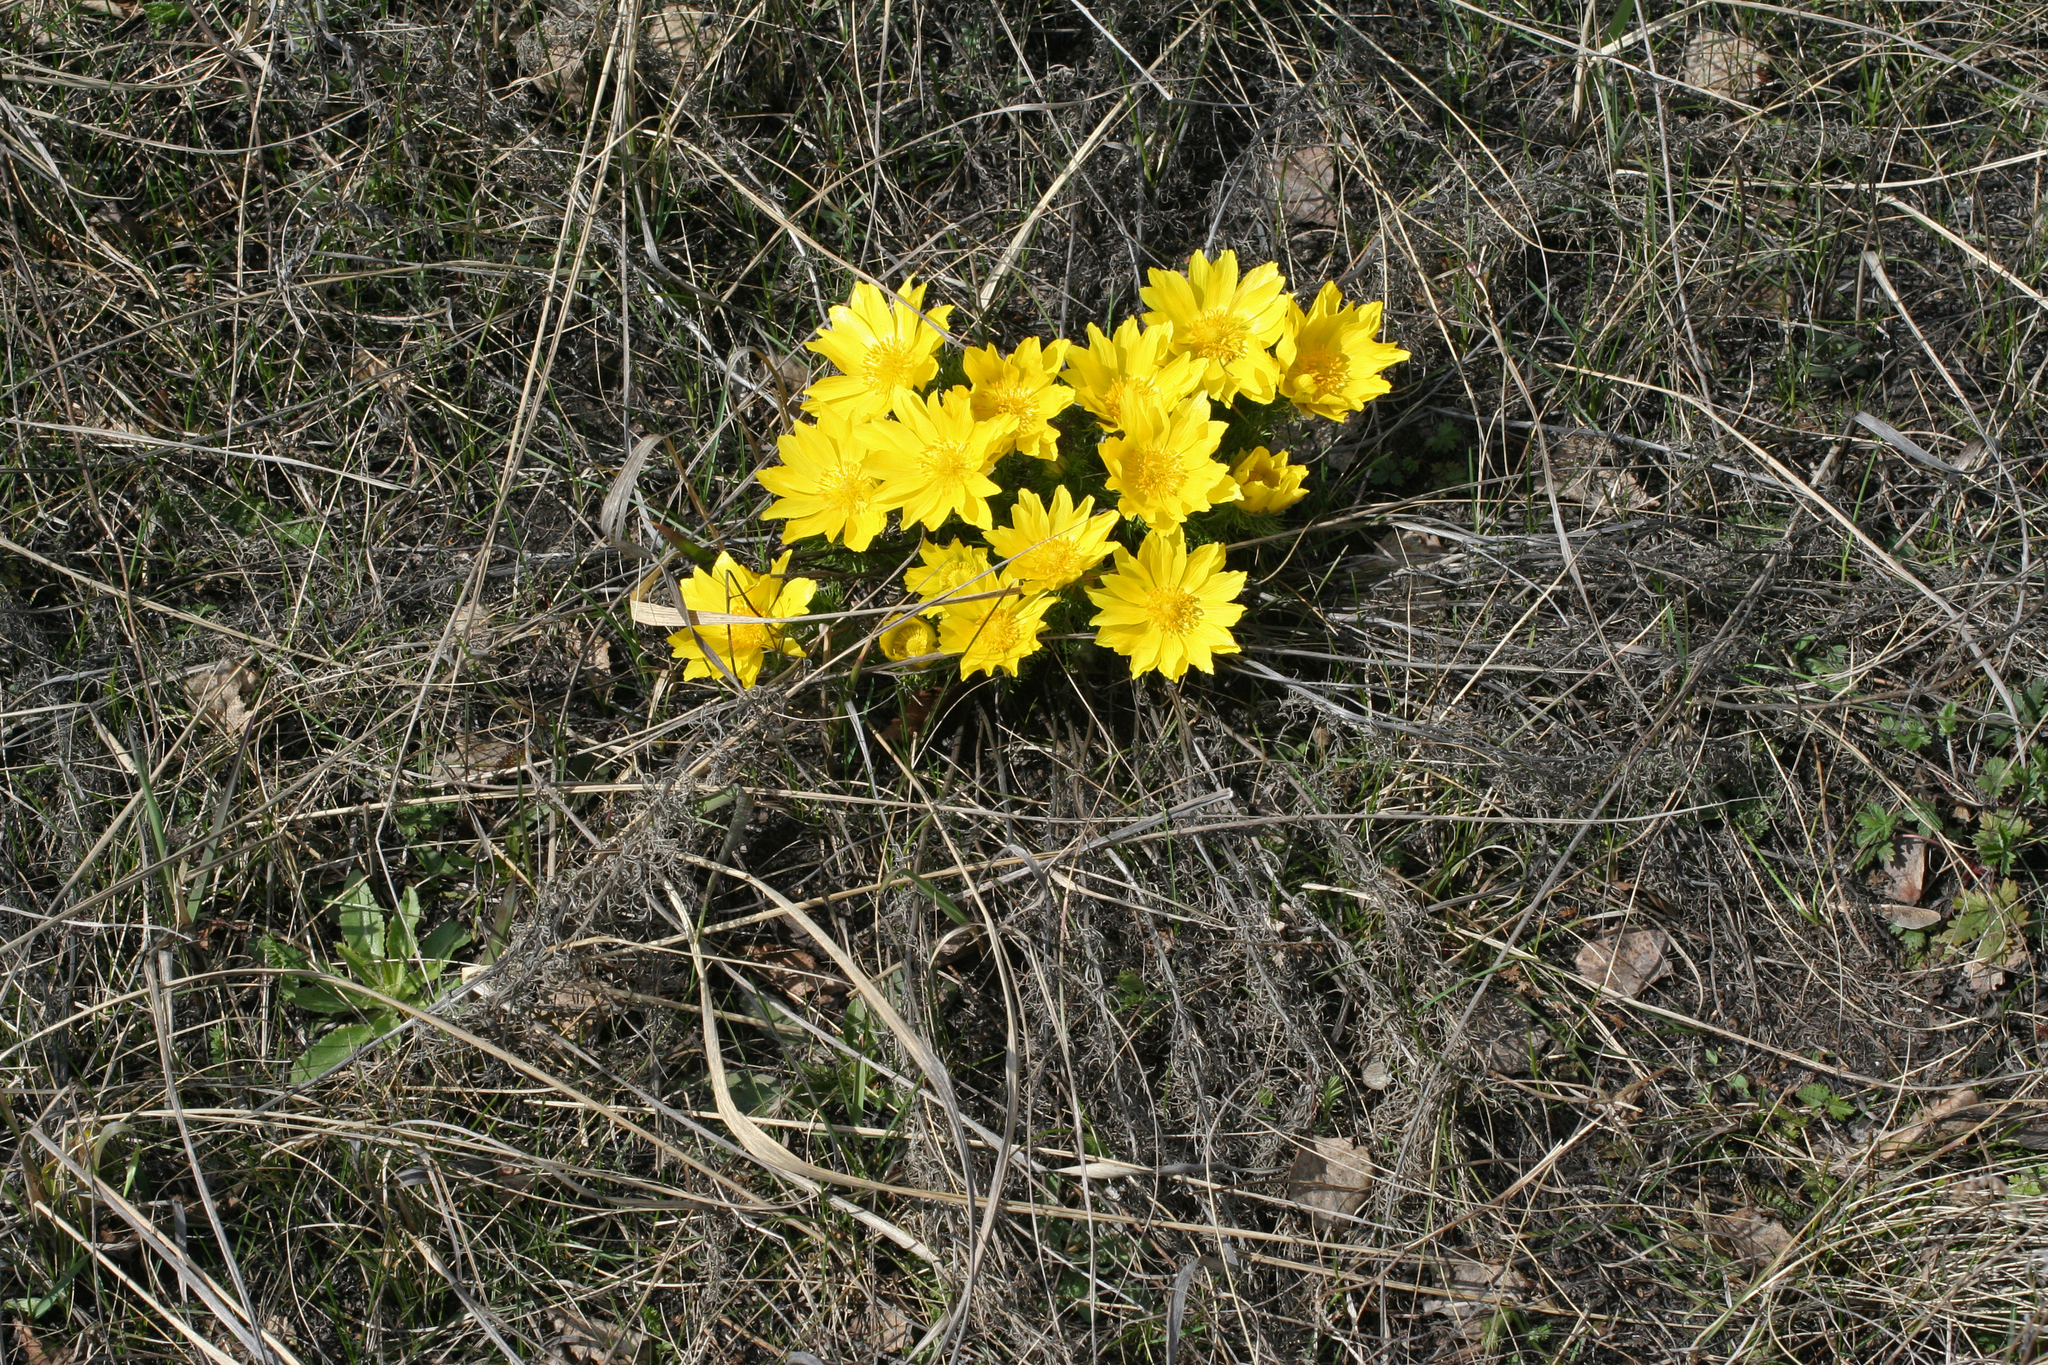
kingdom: Plantae
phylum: Tracheophyta
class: Magnoliopsida
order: Ranunculales
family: Ranunculaceae
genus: Adonis
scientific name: Adonis vernalis
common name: Yellow pheasants-eye
